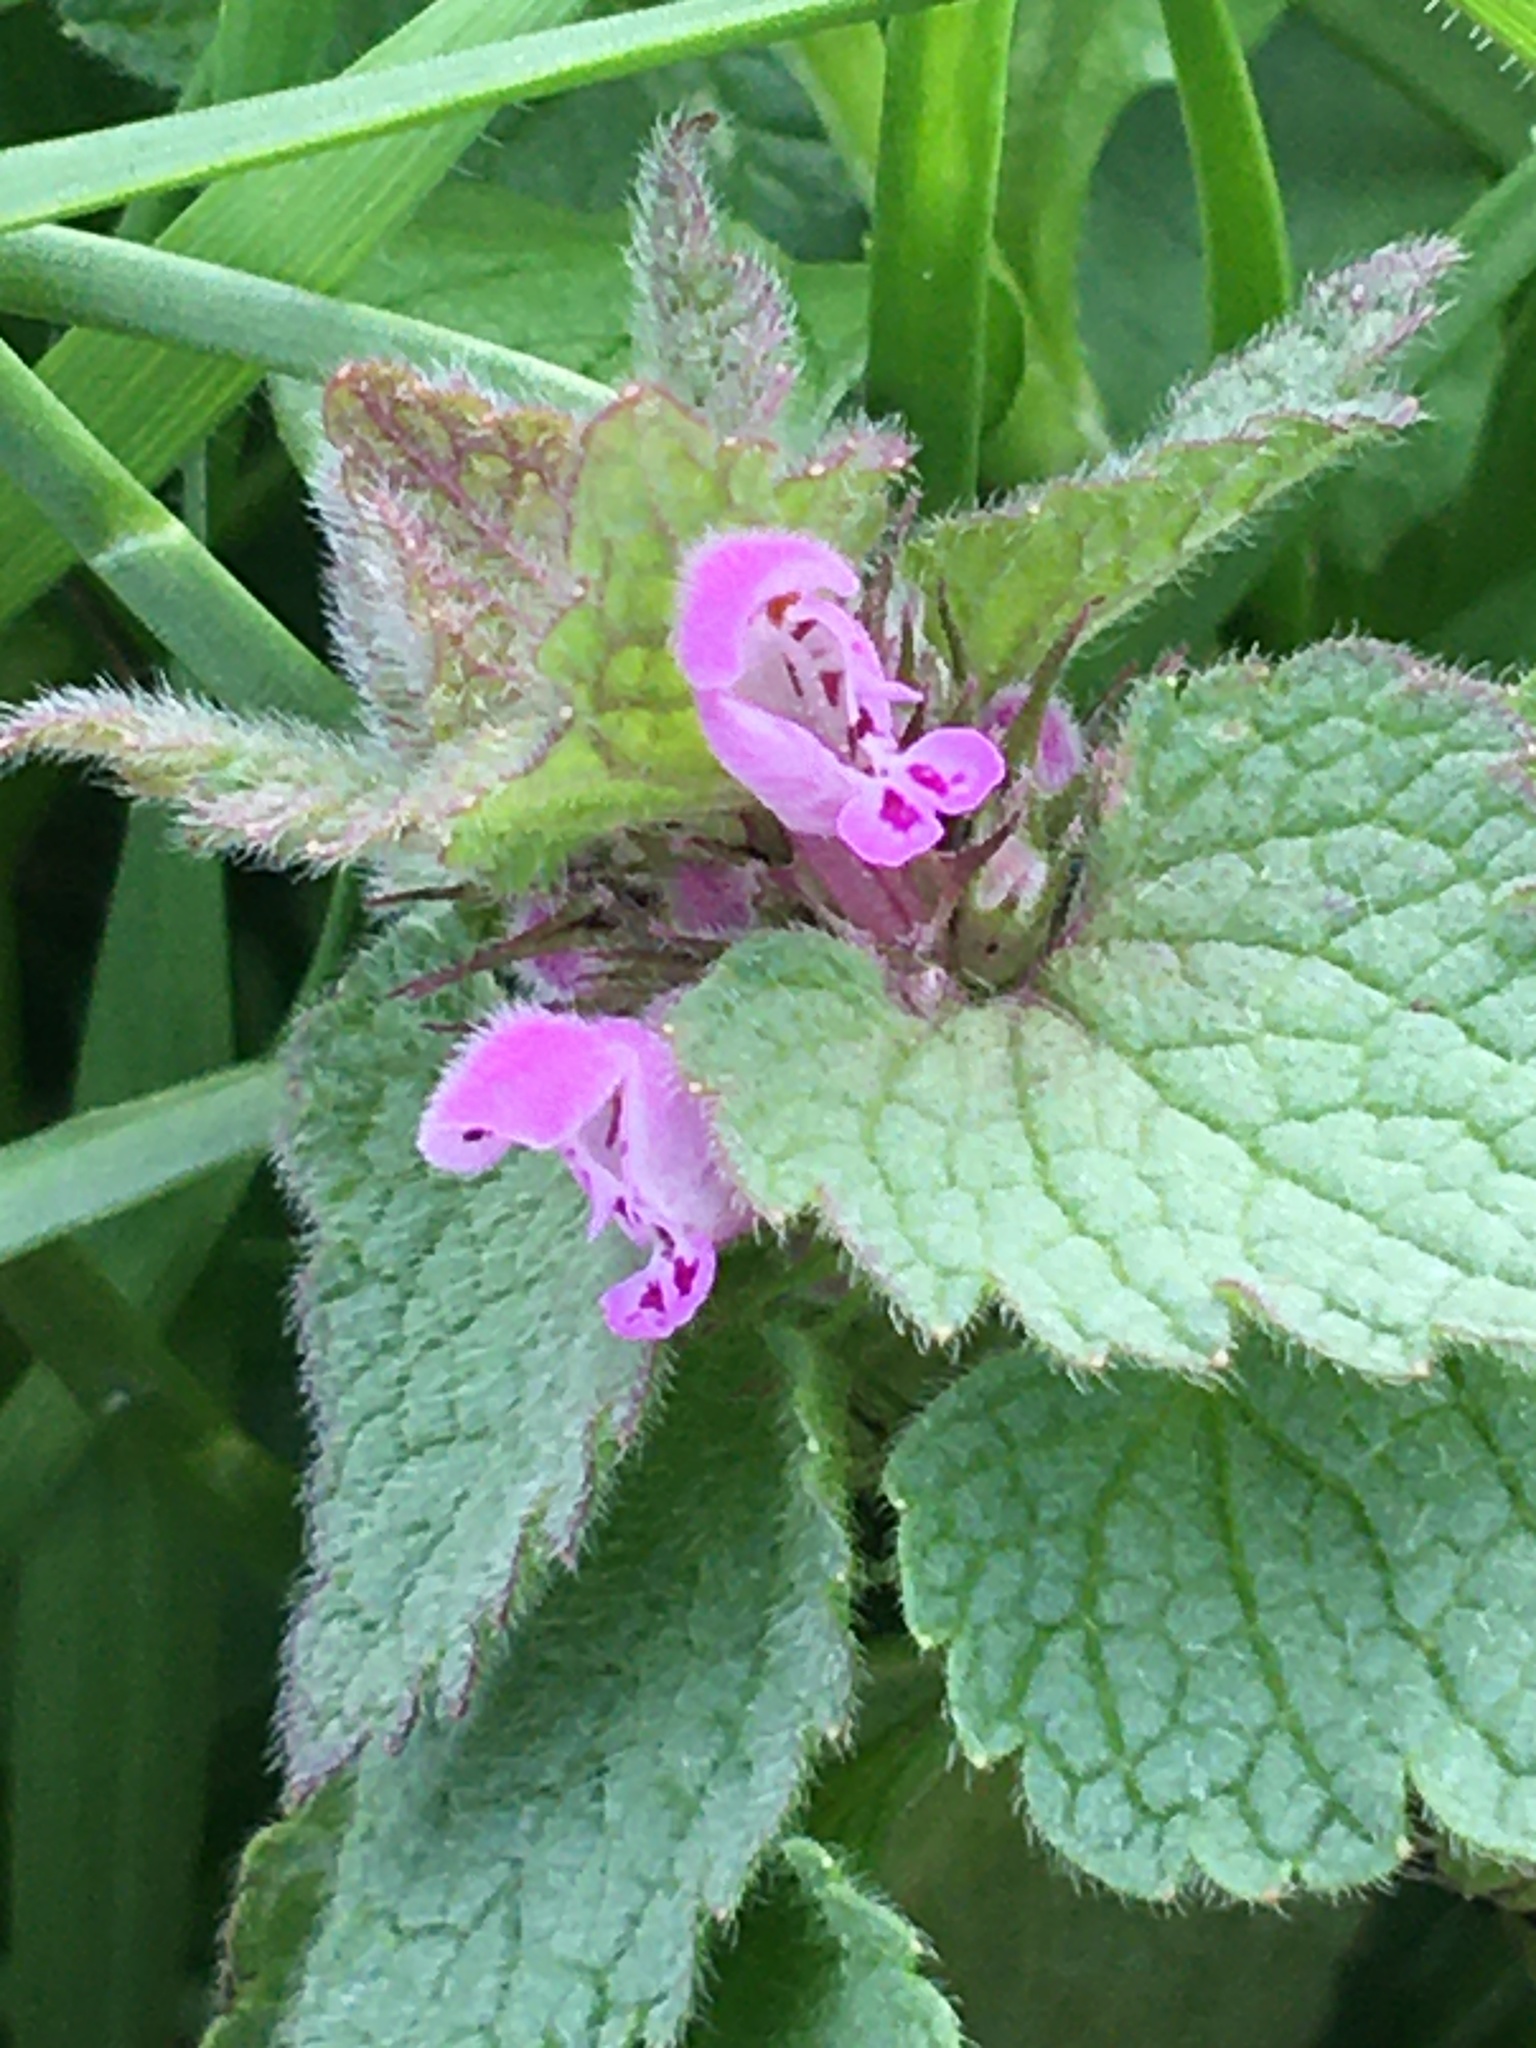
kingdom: Plantae
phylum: Tracheophyta
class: Magnoliopsida
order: Lamiales
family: Lamiaceae
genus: Lamium
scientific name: Lamium purpureum
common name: Red dead-nettle
